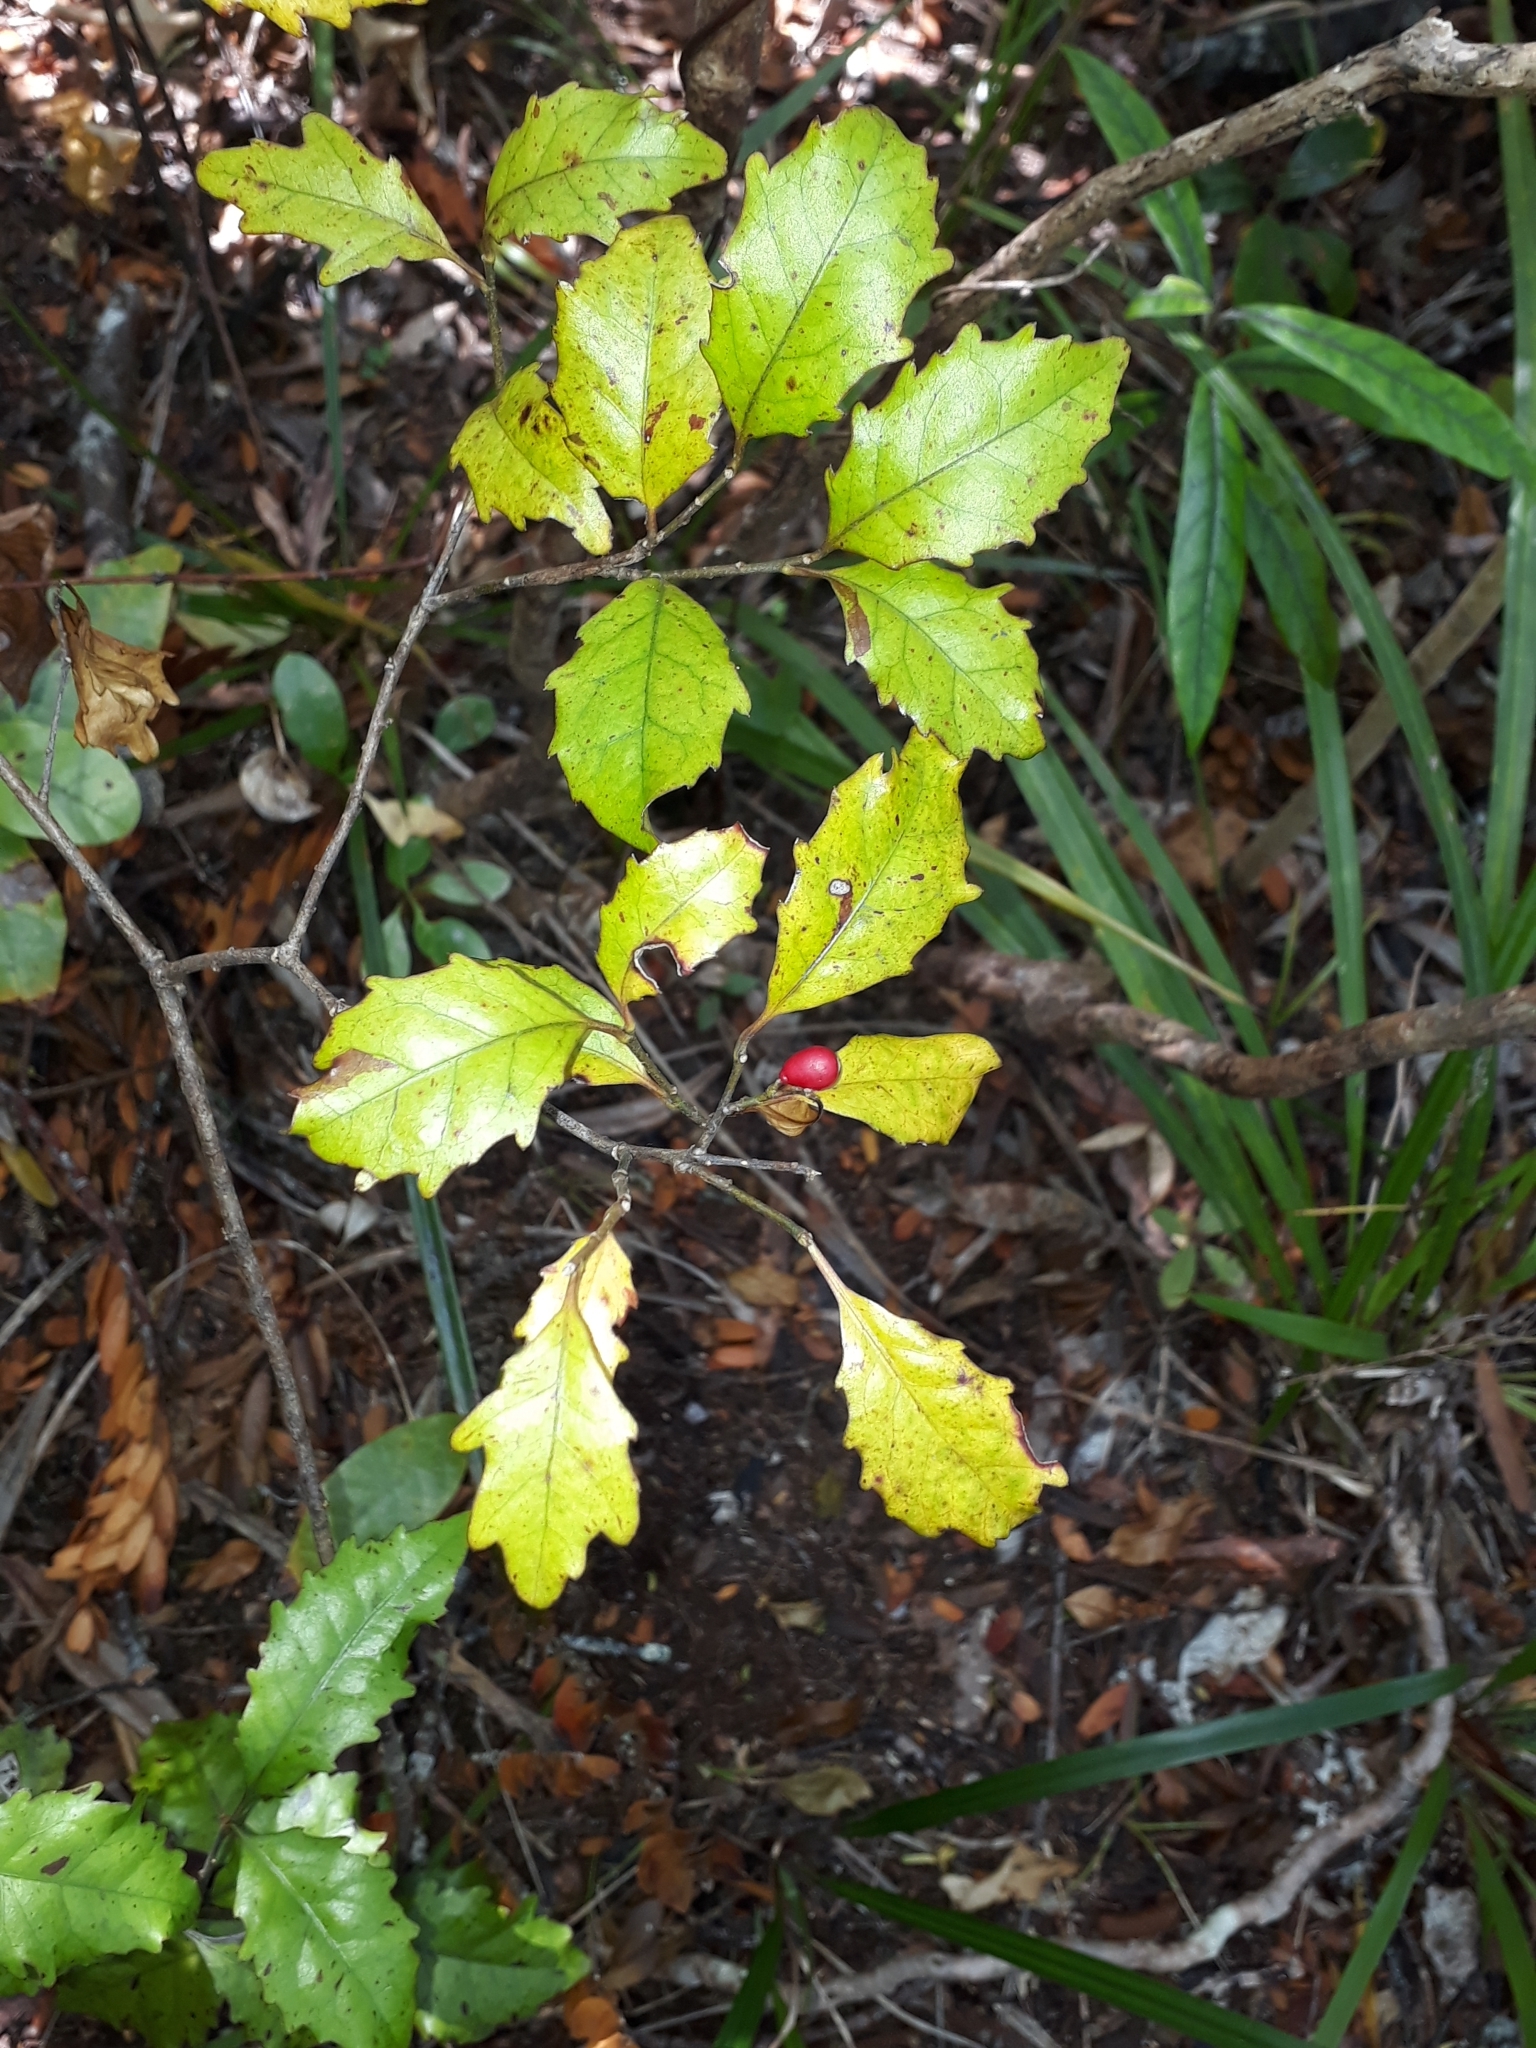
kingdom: Plantae
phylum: Tracheophyta
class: Magnoliopsida
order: Asterales
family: Alseuosmiaceae
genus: Alseuosmia
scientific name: Alseuosmia banksii
